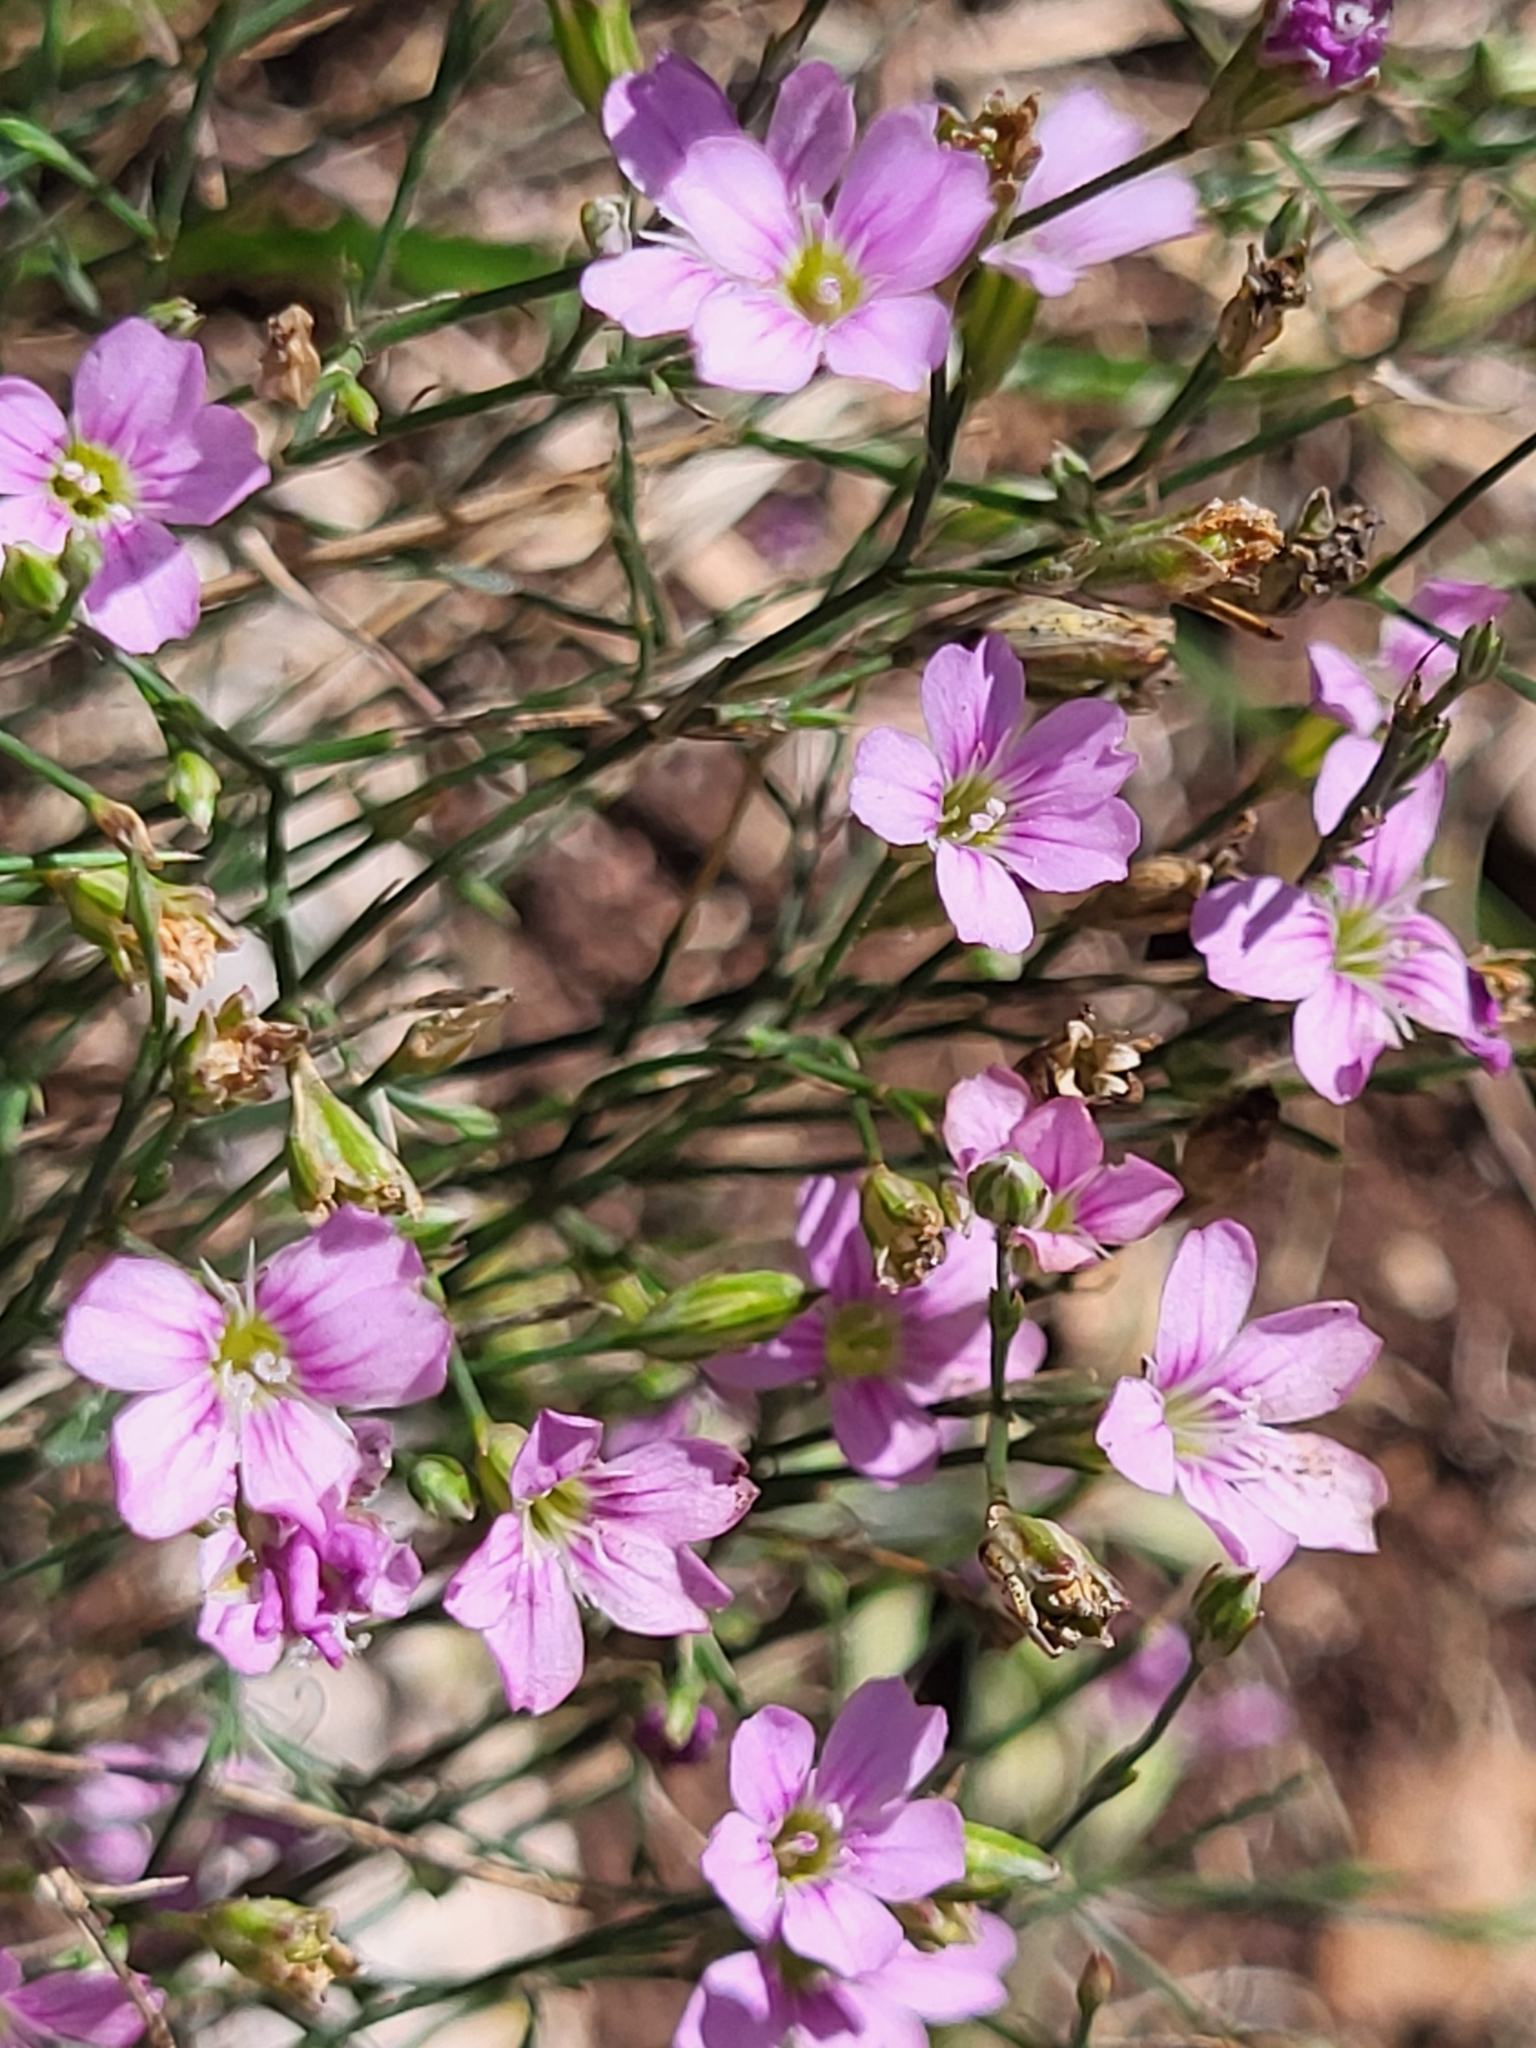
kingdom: Plantae
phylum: Tracheophyta
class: Magnoliopsida
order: Caryophyllales
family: Caryophyllaceae
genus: Petrorhagia
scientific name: Petrorhagia saxifraga
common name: Tunicflower
